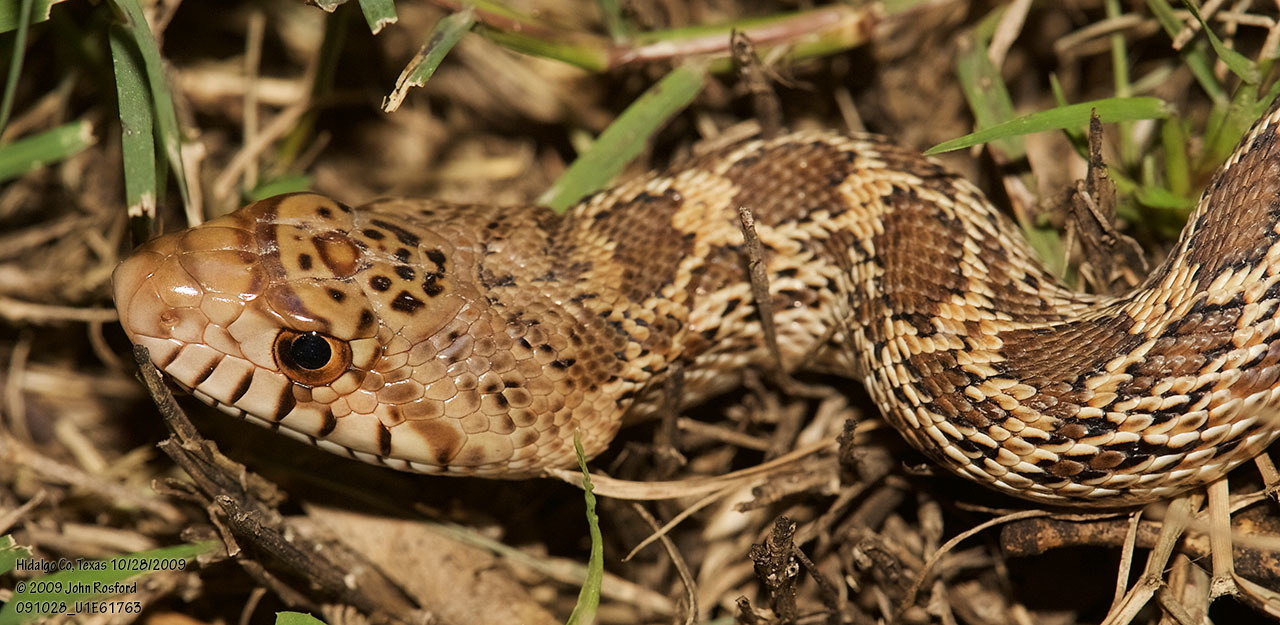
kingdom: Animalia
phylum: Chordata
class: Squamata
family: Colubridae
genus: Pituophis
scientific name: Pituophis catenifer
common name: Gopher snake
